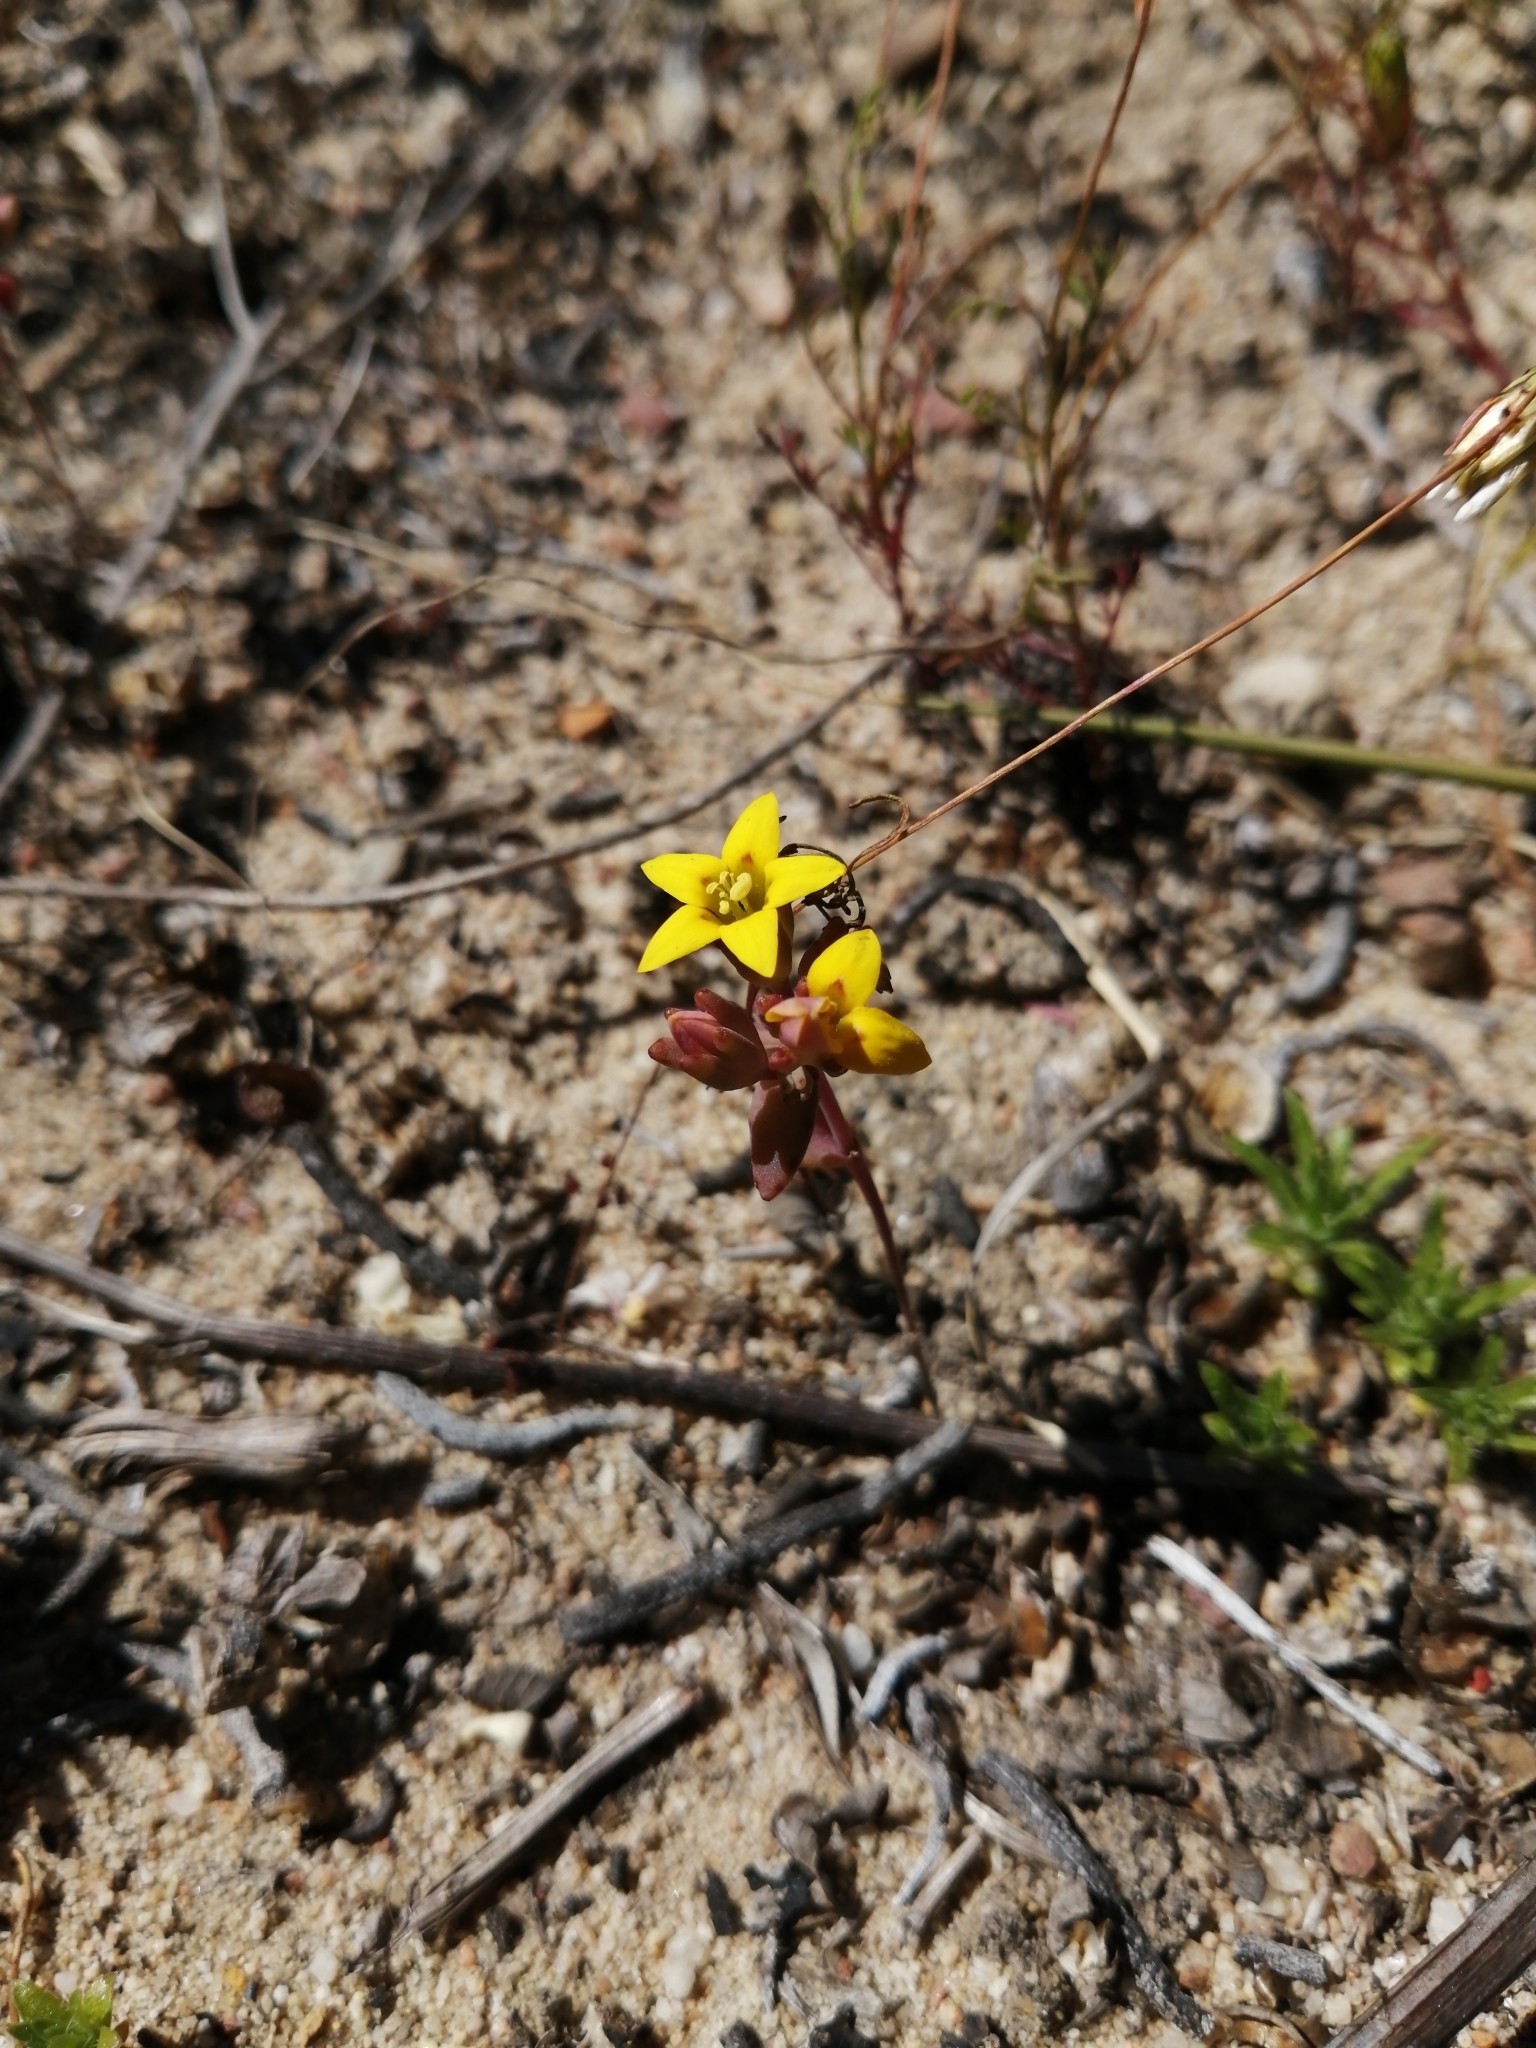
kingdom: Plantae
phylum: Tracheophyta
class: Magnoliopsida
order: Saxifragales
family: Crassulaceae
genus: Crassula
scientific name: Crassula dichotoma
